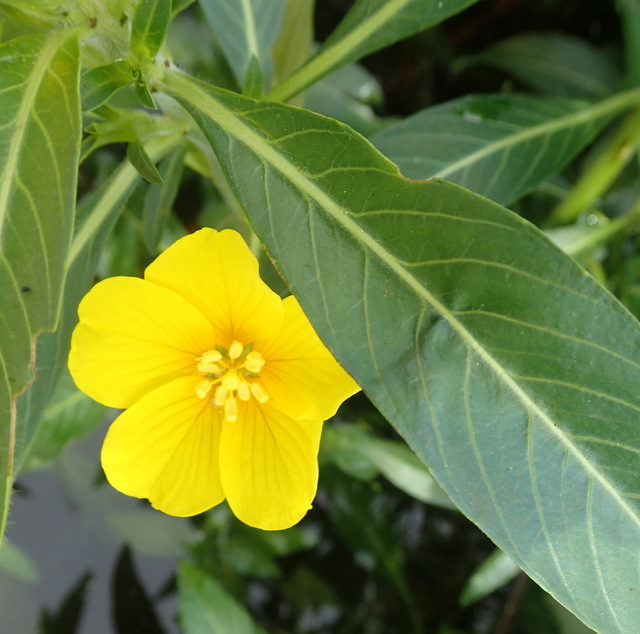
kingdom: Plantae
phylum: Tracheophyta
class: Magnoliopsida
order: Myrtales
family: Onagraceae
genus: Ludwigia
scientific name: Ludwigia grandiflora
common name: Water primrose
